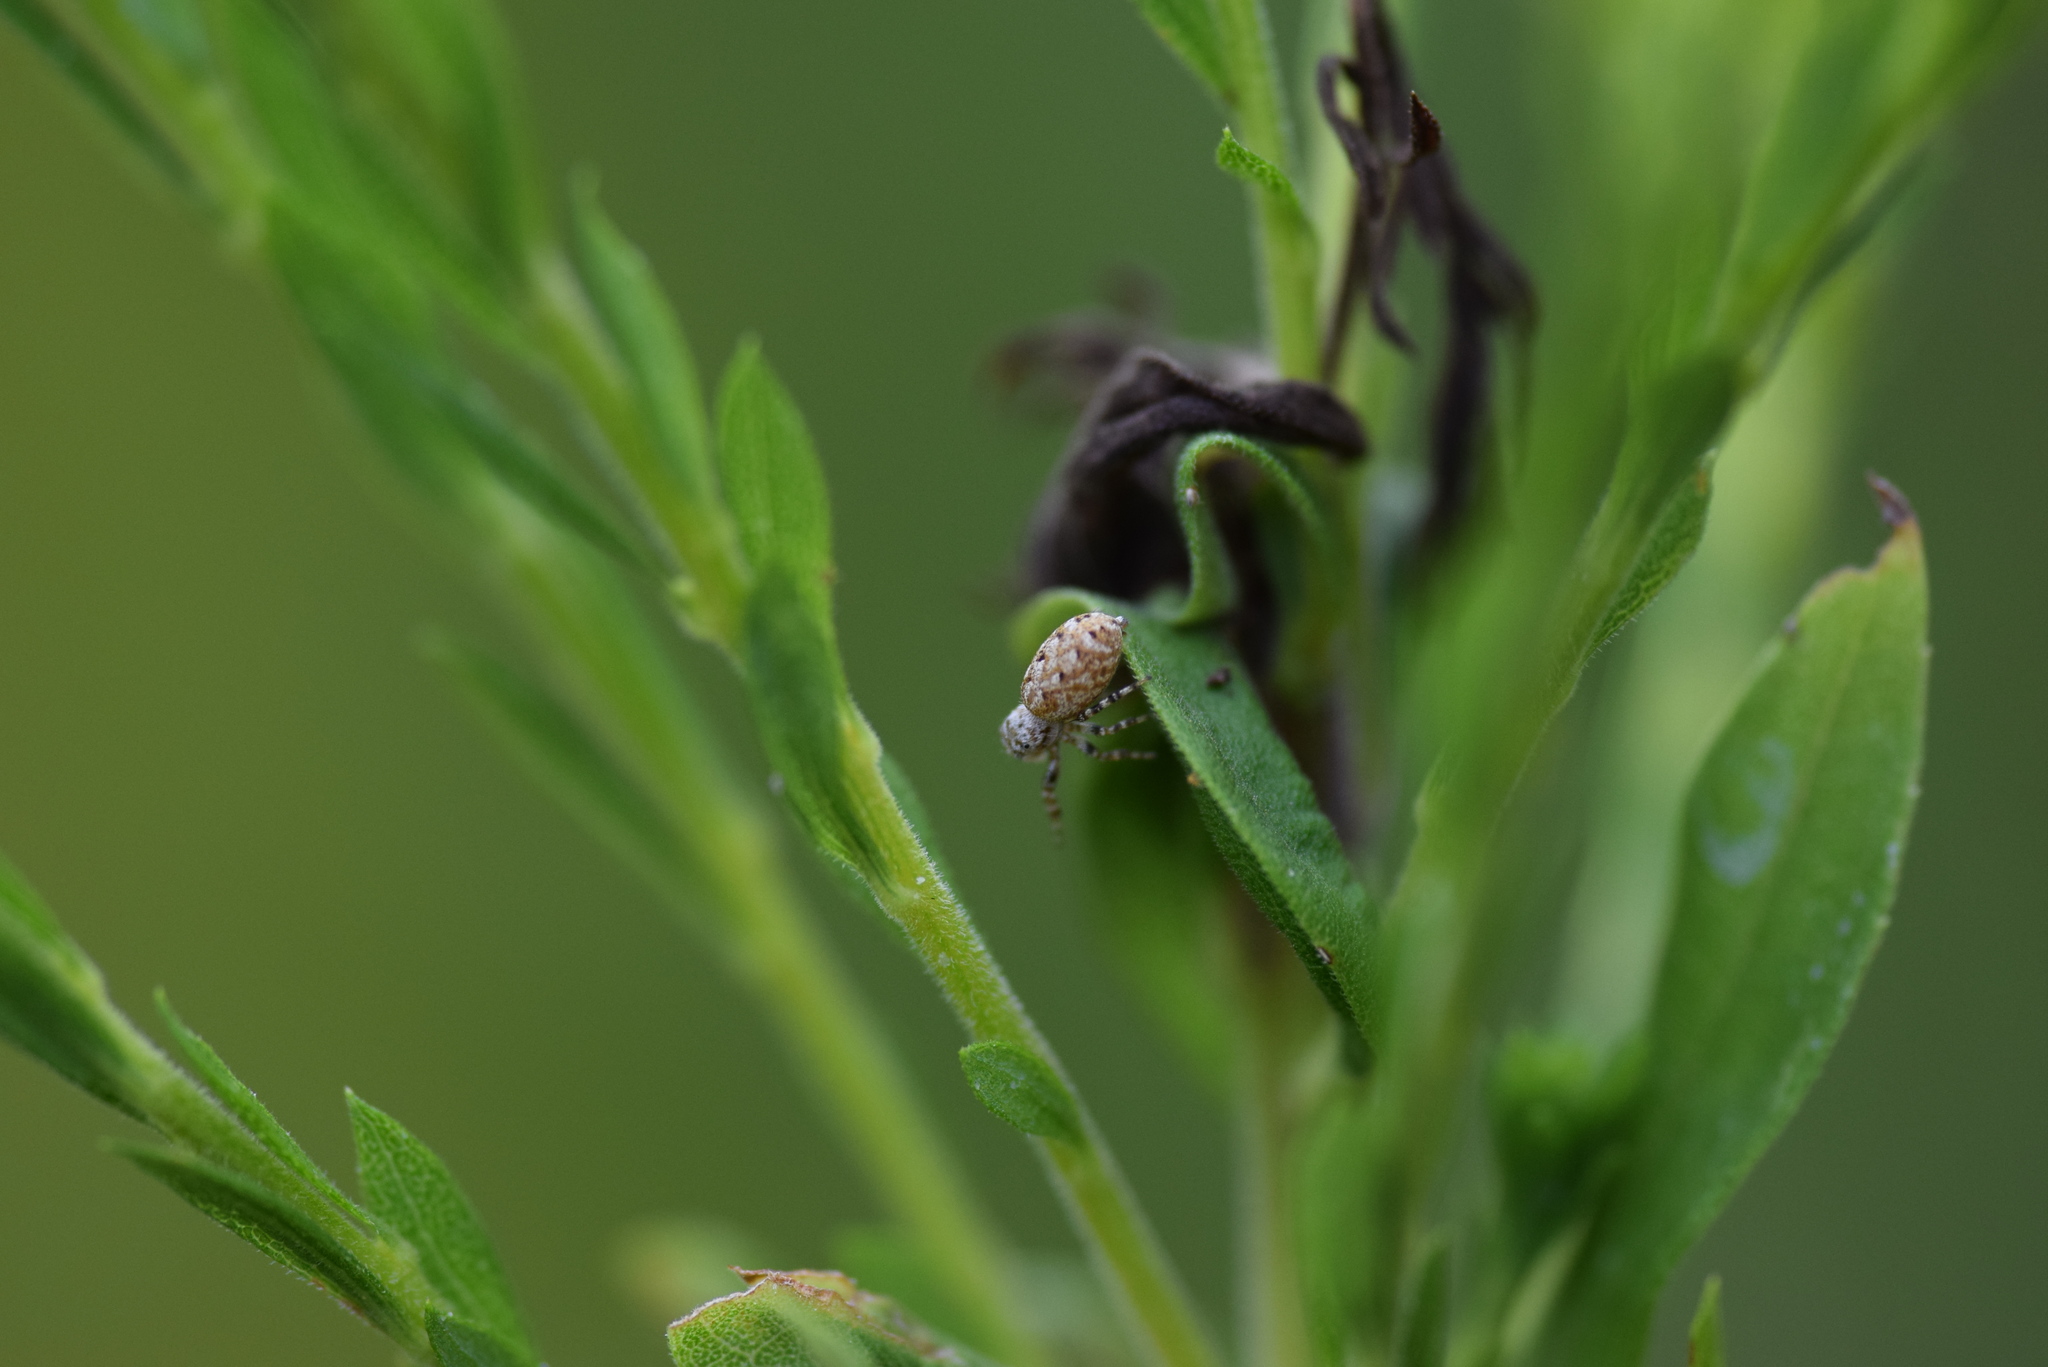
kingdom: Animalia
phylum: Arthropoda
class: Arachnida
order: Araneae
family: Salticidae
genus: Pelegrina
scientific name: Pelegrina galathea
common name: Jumping spiders
